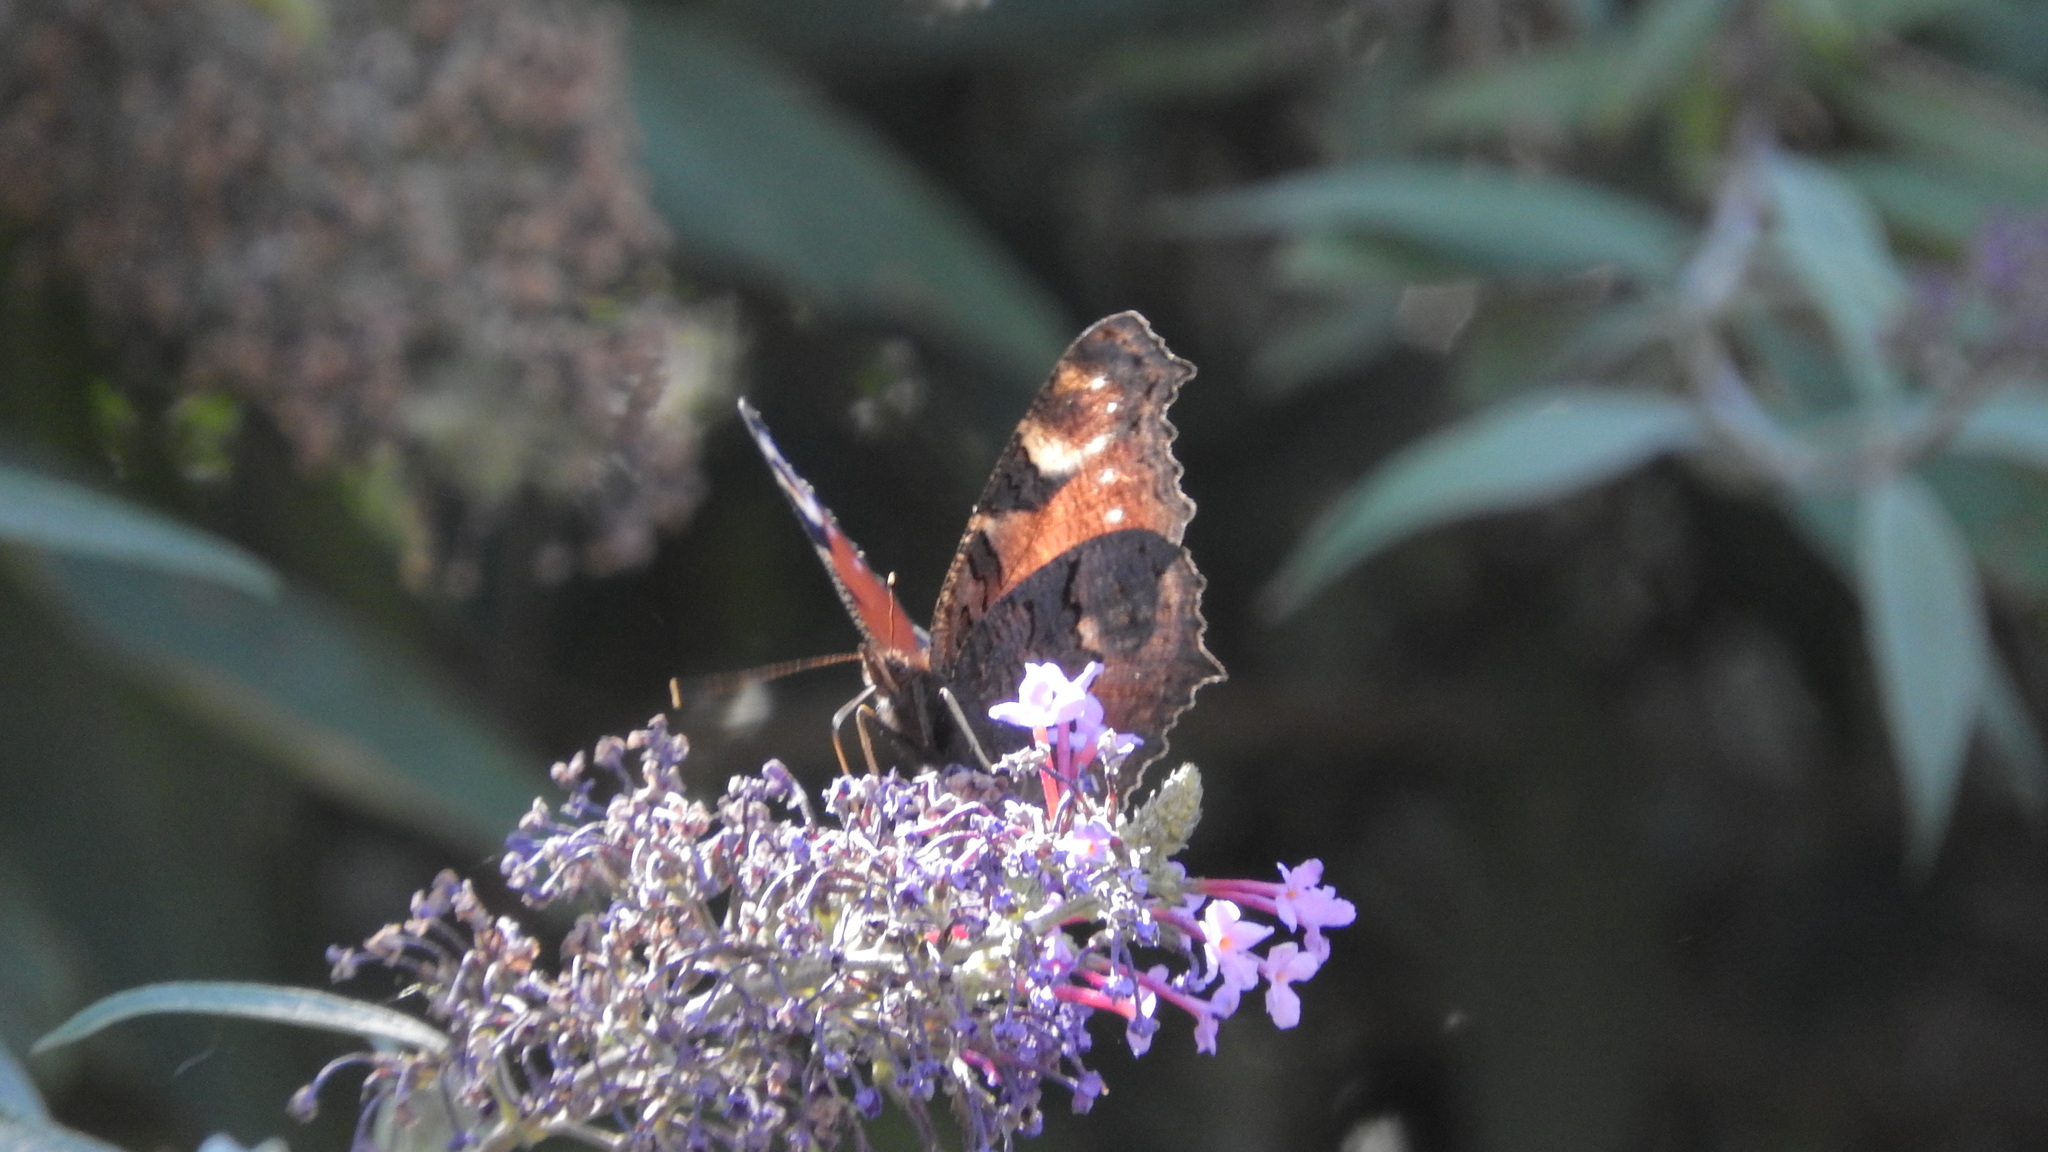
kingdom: Animalia
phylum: Arthropoda
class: Insecta
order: Lepidoptera
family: Nymphalidae
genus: Aglais
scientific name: Aglais io
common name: Peacock
